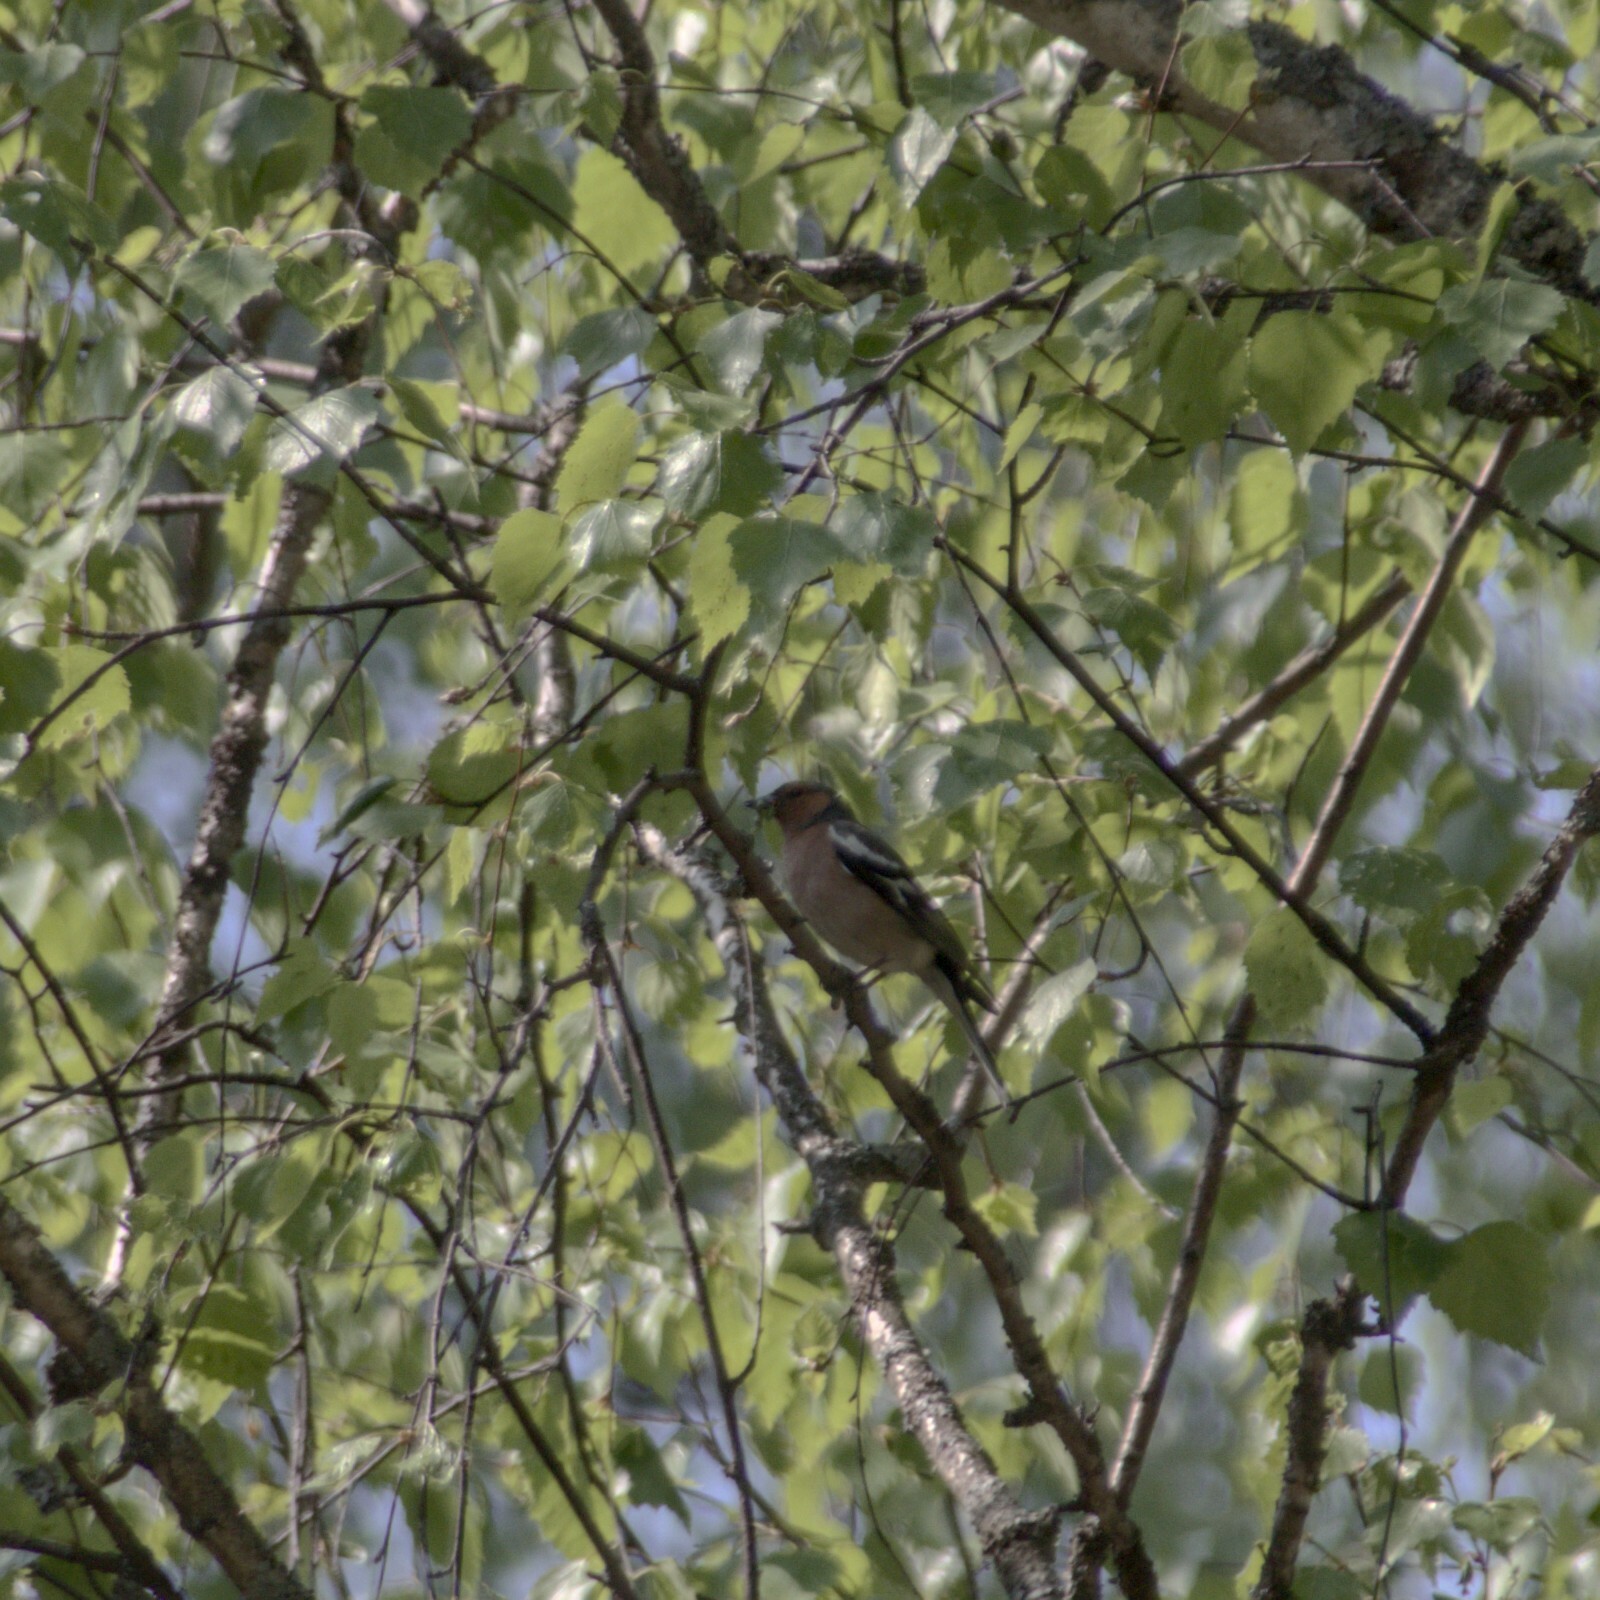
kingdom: Animalia
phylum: Chordata
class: Aves
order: Passeriformes
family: Fringillidae
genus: Fringilla
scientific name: Fringilla coelebs
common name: Common chaffinch
